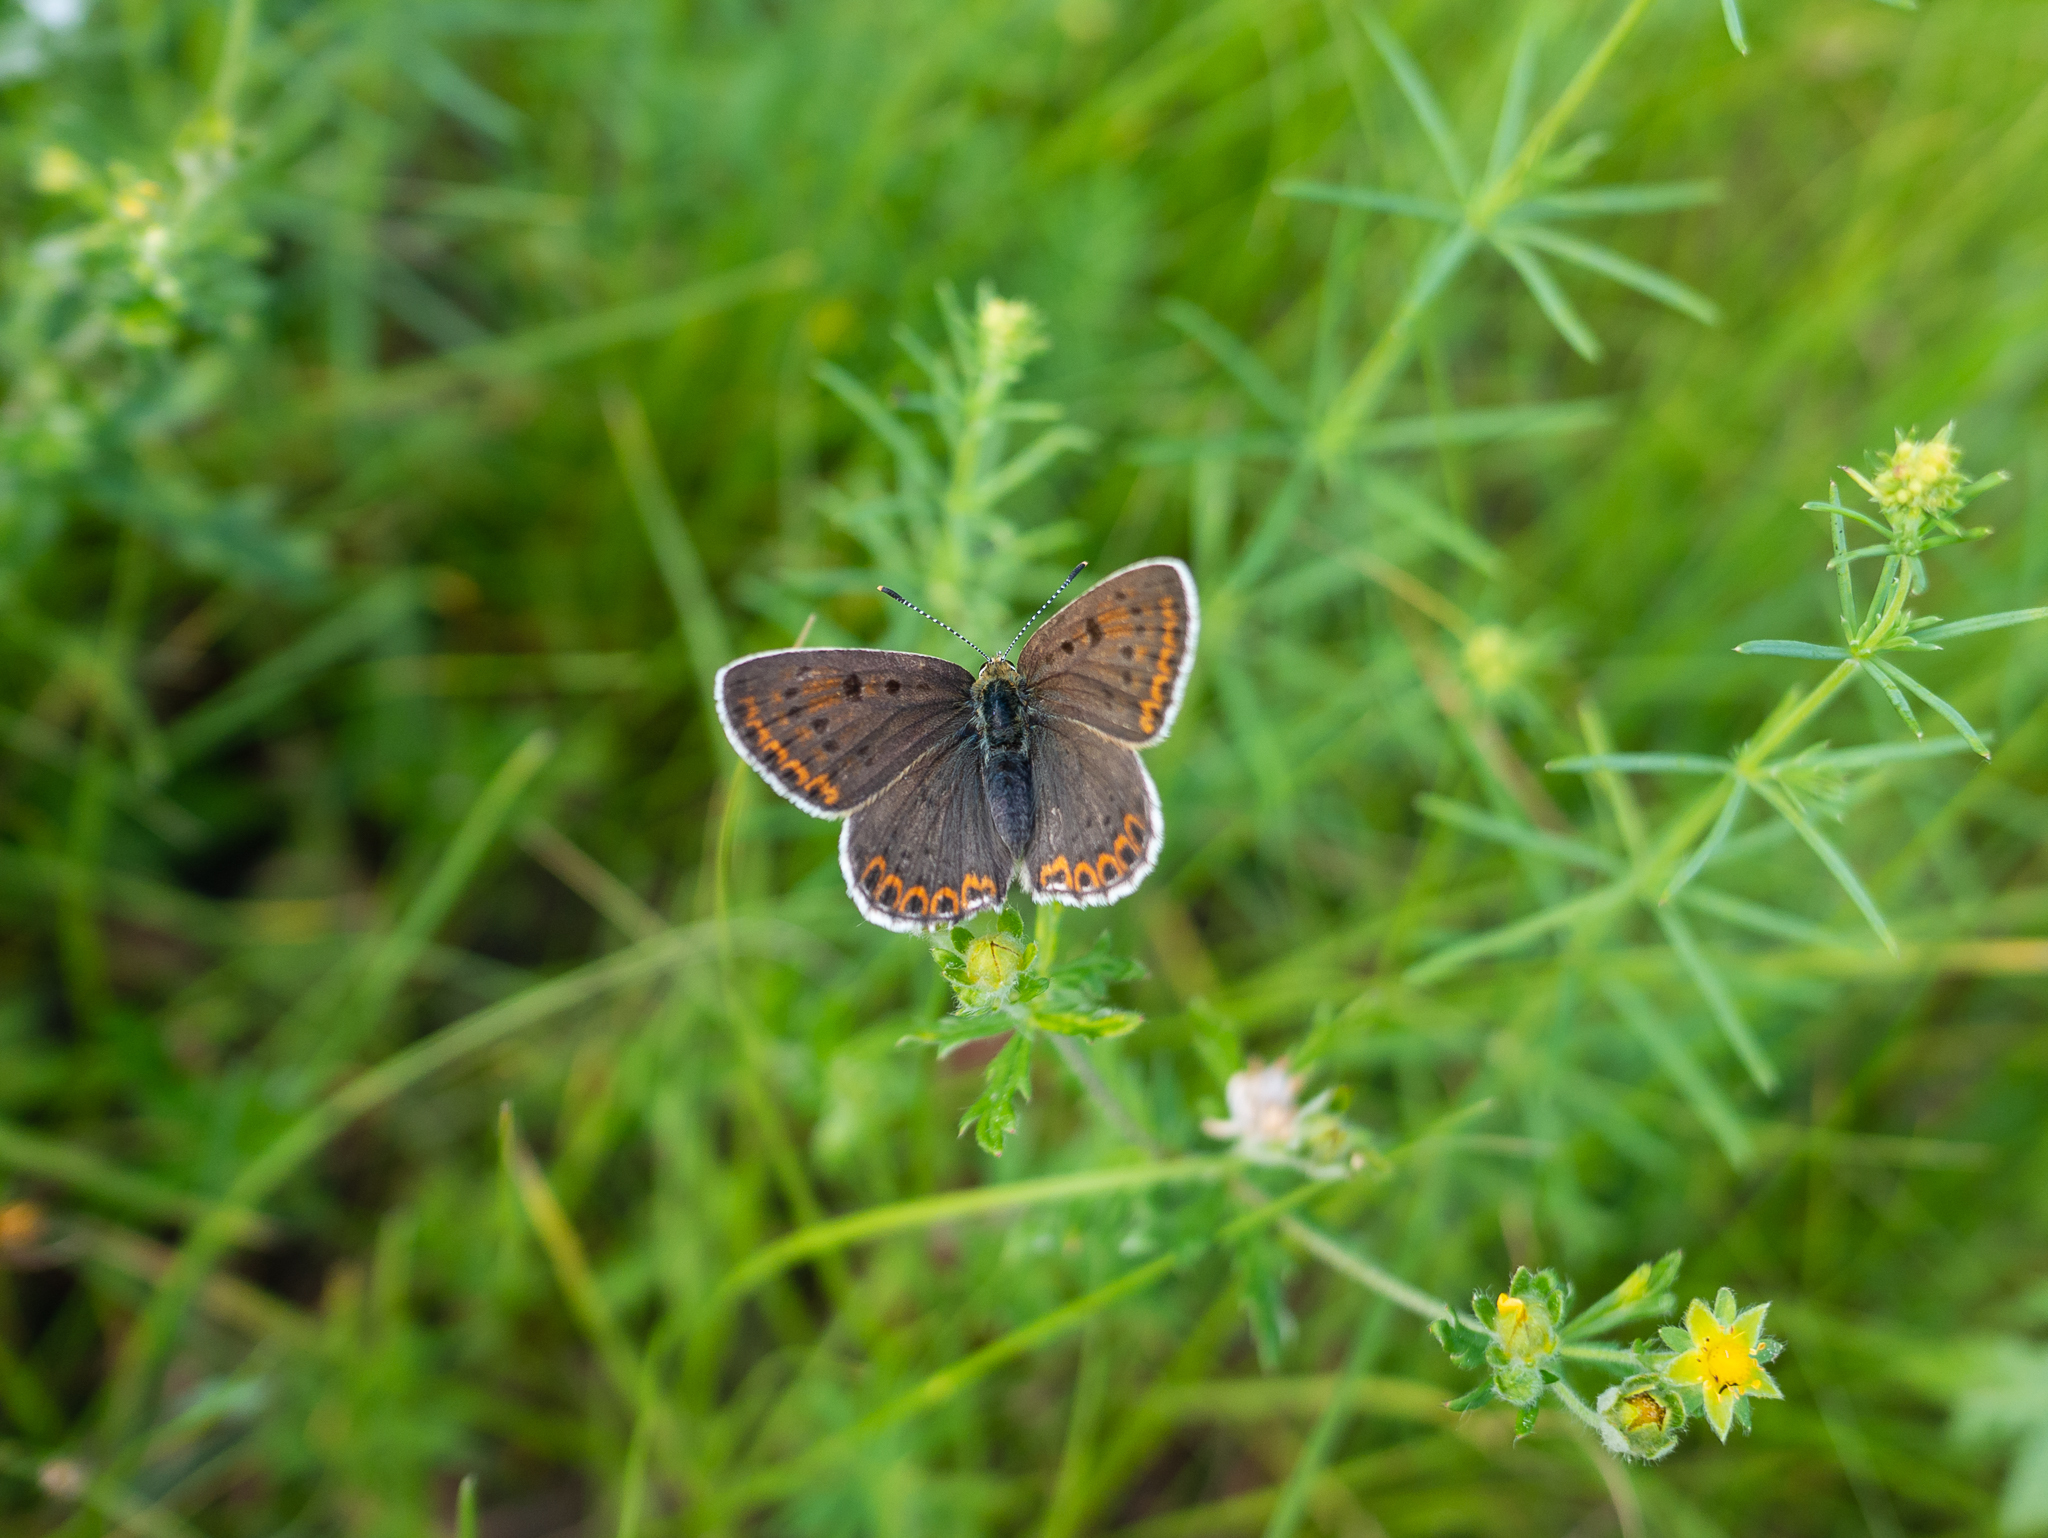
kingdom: Animalia
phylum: Arthropoda
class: Insecta
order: Lepidoptera
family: Lycaenidae
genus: Loweia
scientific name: Loweia tityrus
